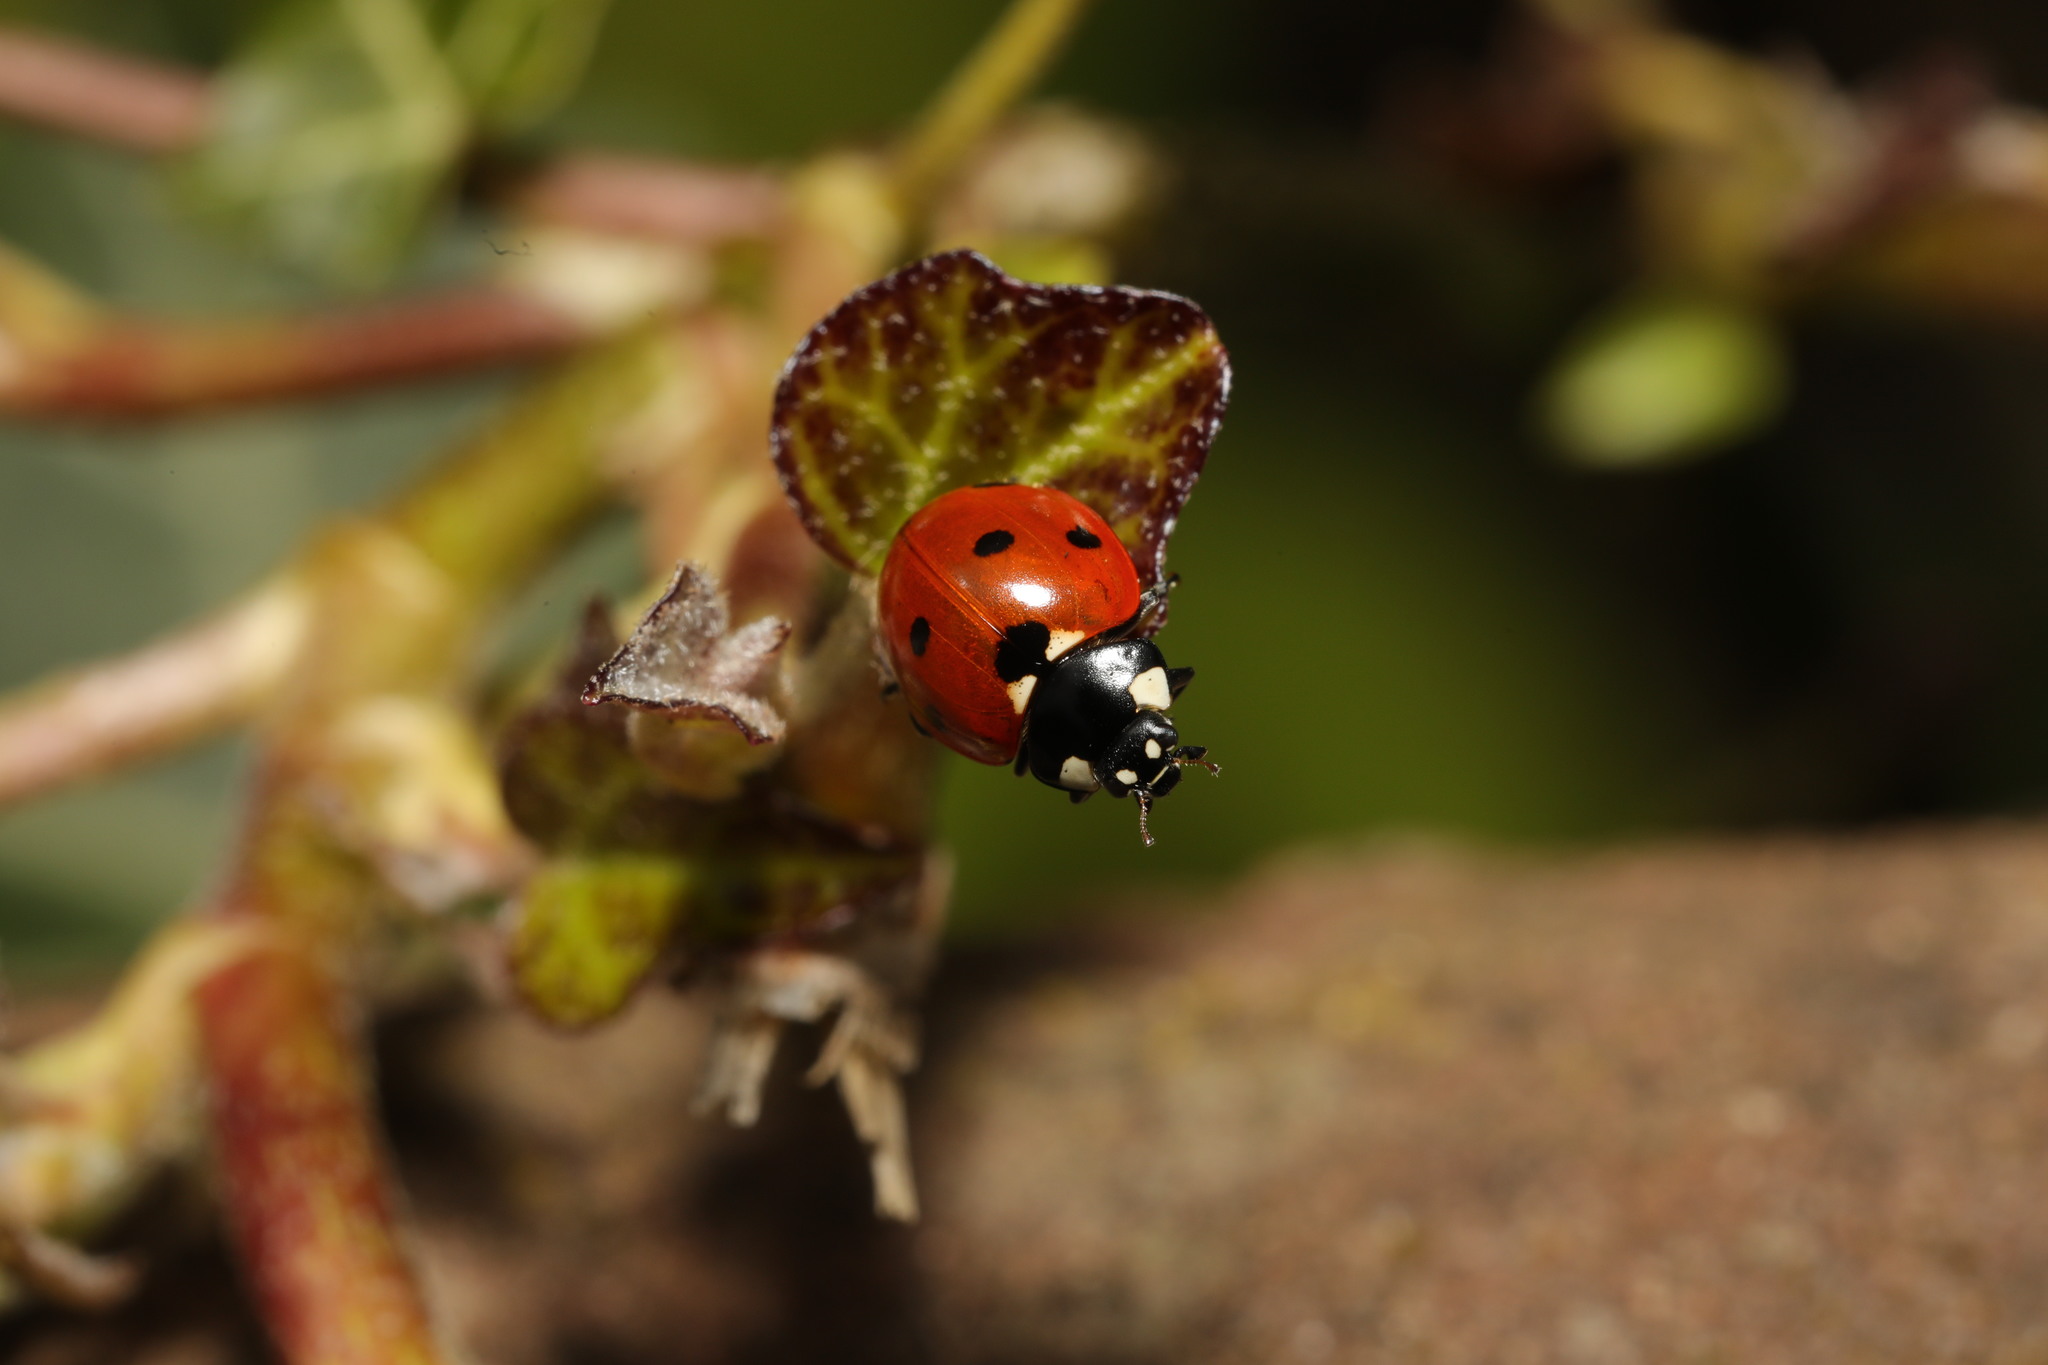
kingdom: Animalia
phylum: Arthropoda
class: Insecta
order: Coleoptera
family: Coccinellidae
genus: Coccinella
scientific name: Coccinella septempunctata
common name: Sevenspotted lady beetle
